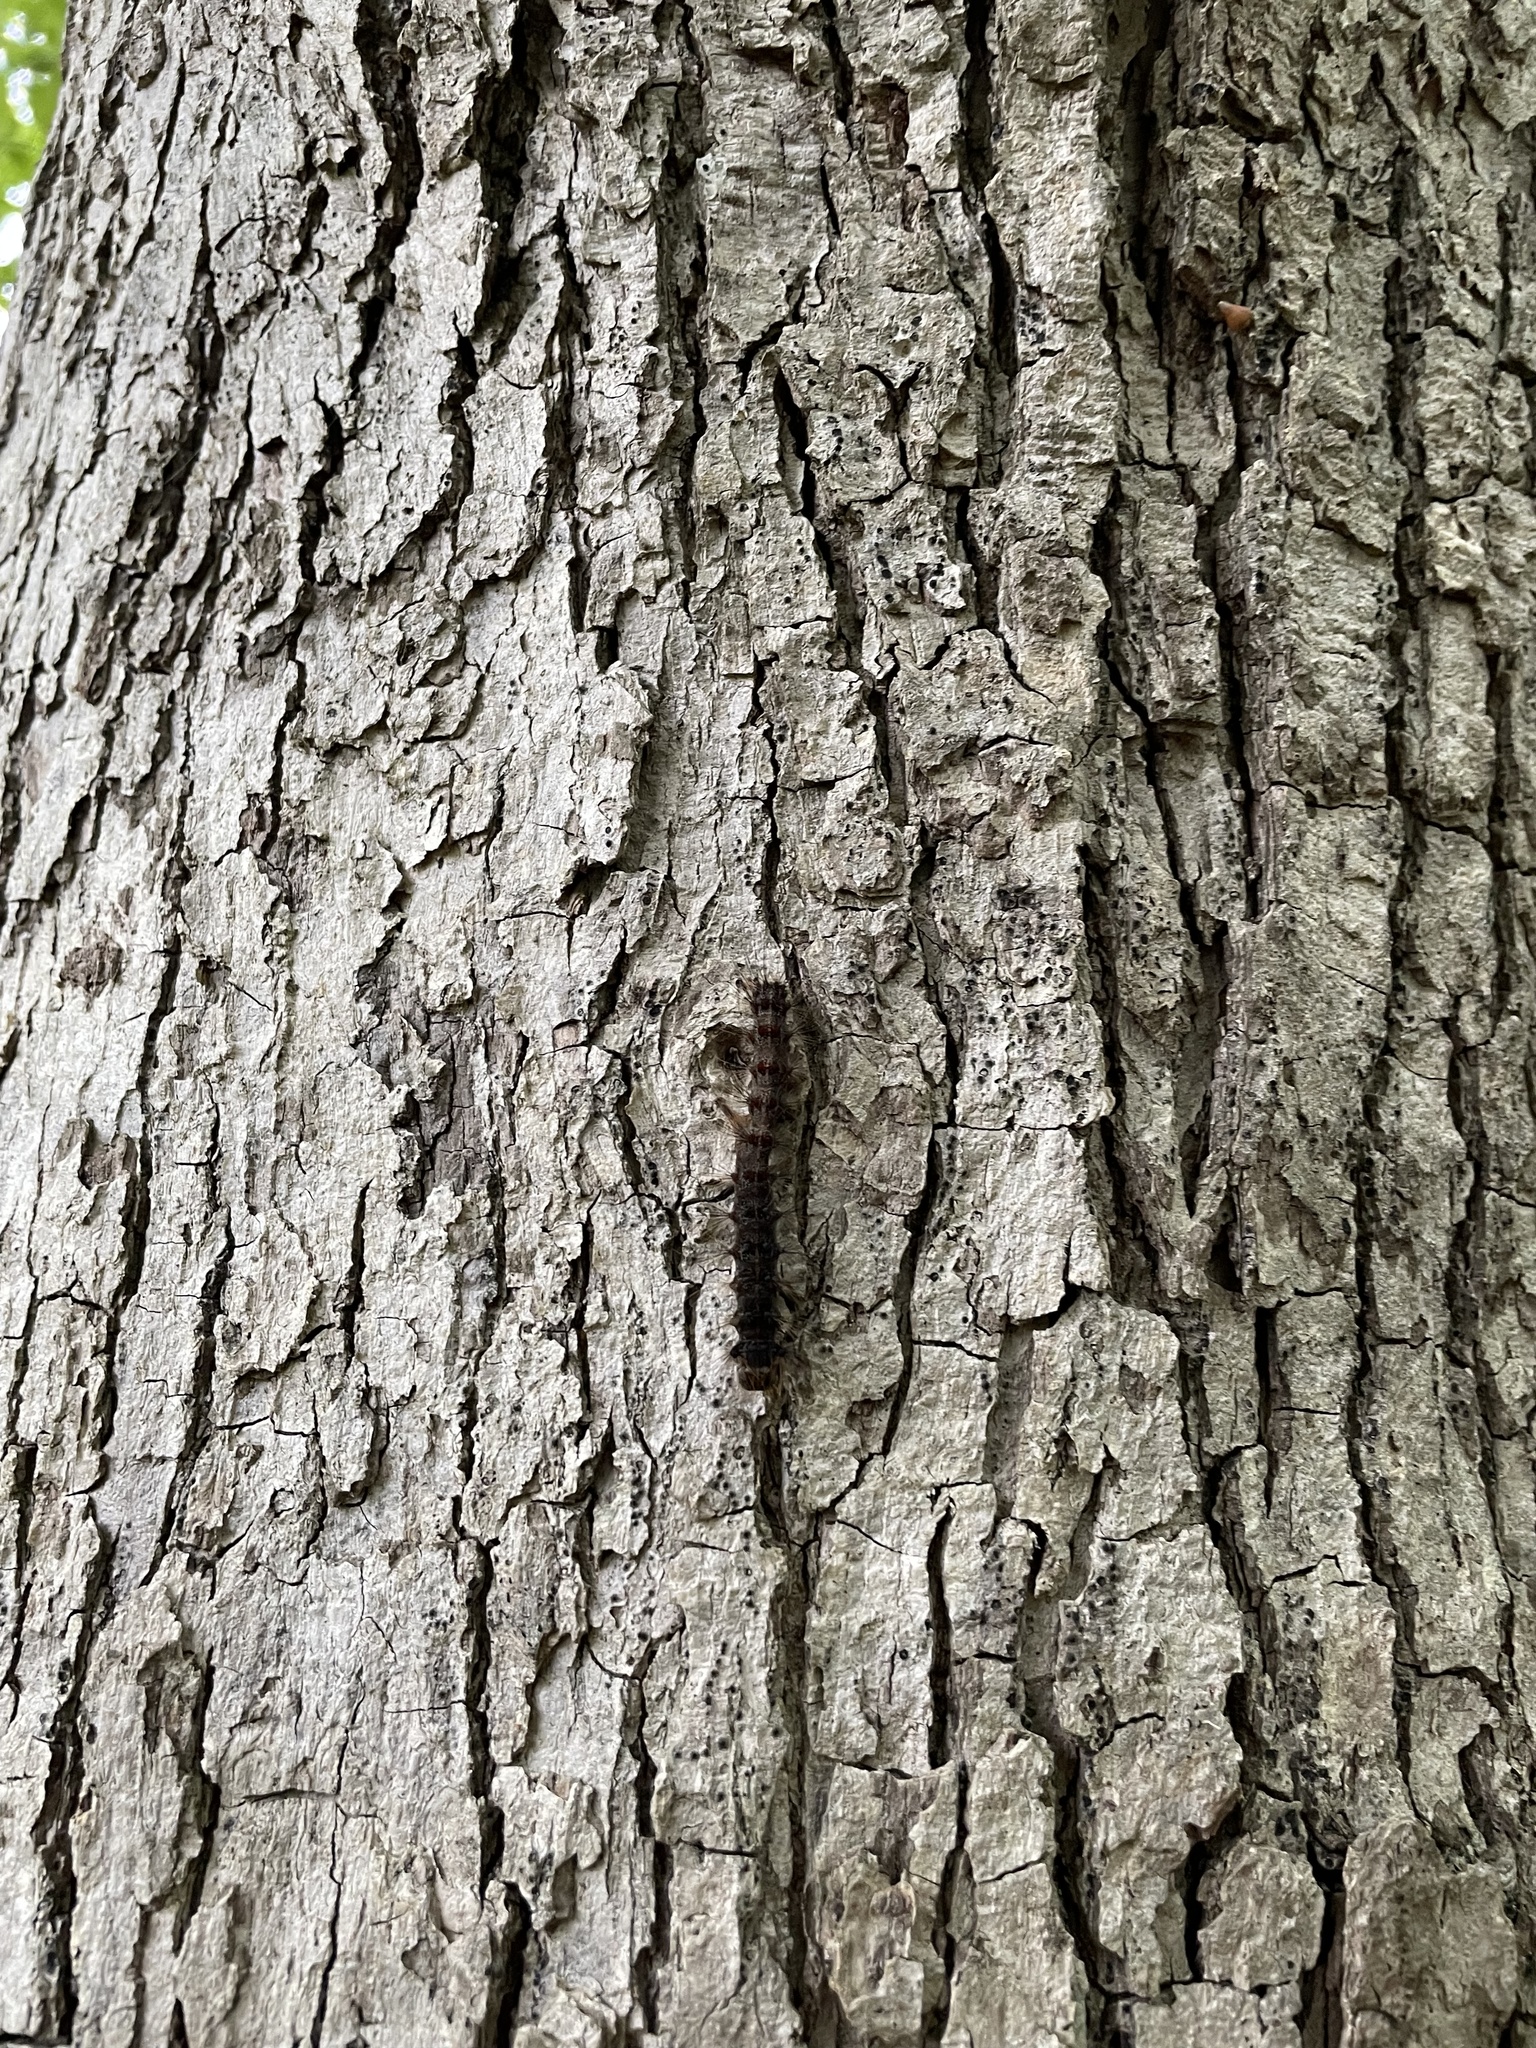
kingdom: Animalia
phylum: Arthropoda
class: Insecta
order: Lepidoptera
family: Erebidae
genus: Lymantria
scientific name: Lymantria dispar
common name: Gypsy moth
